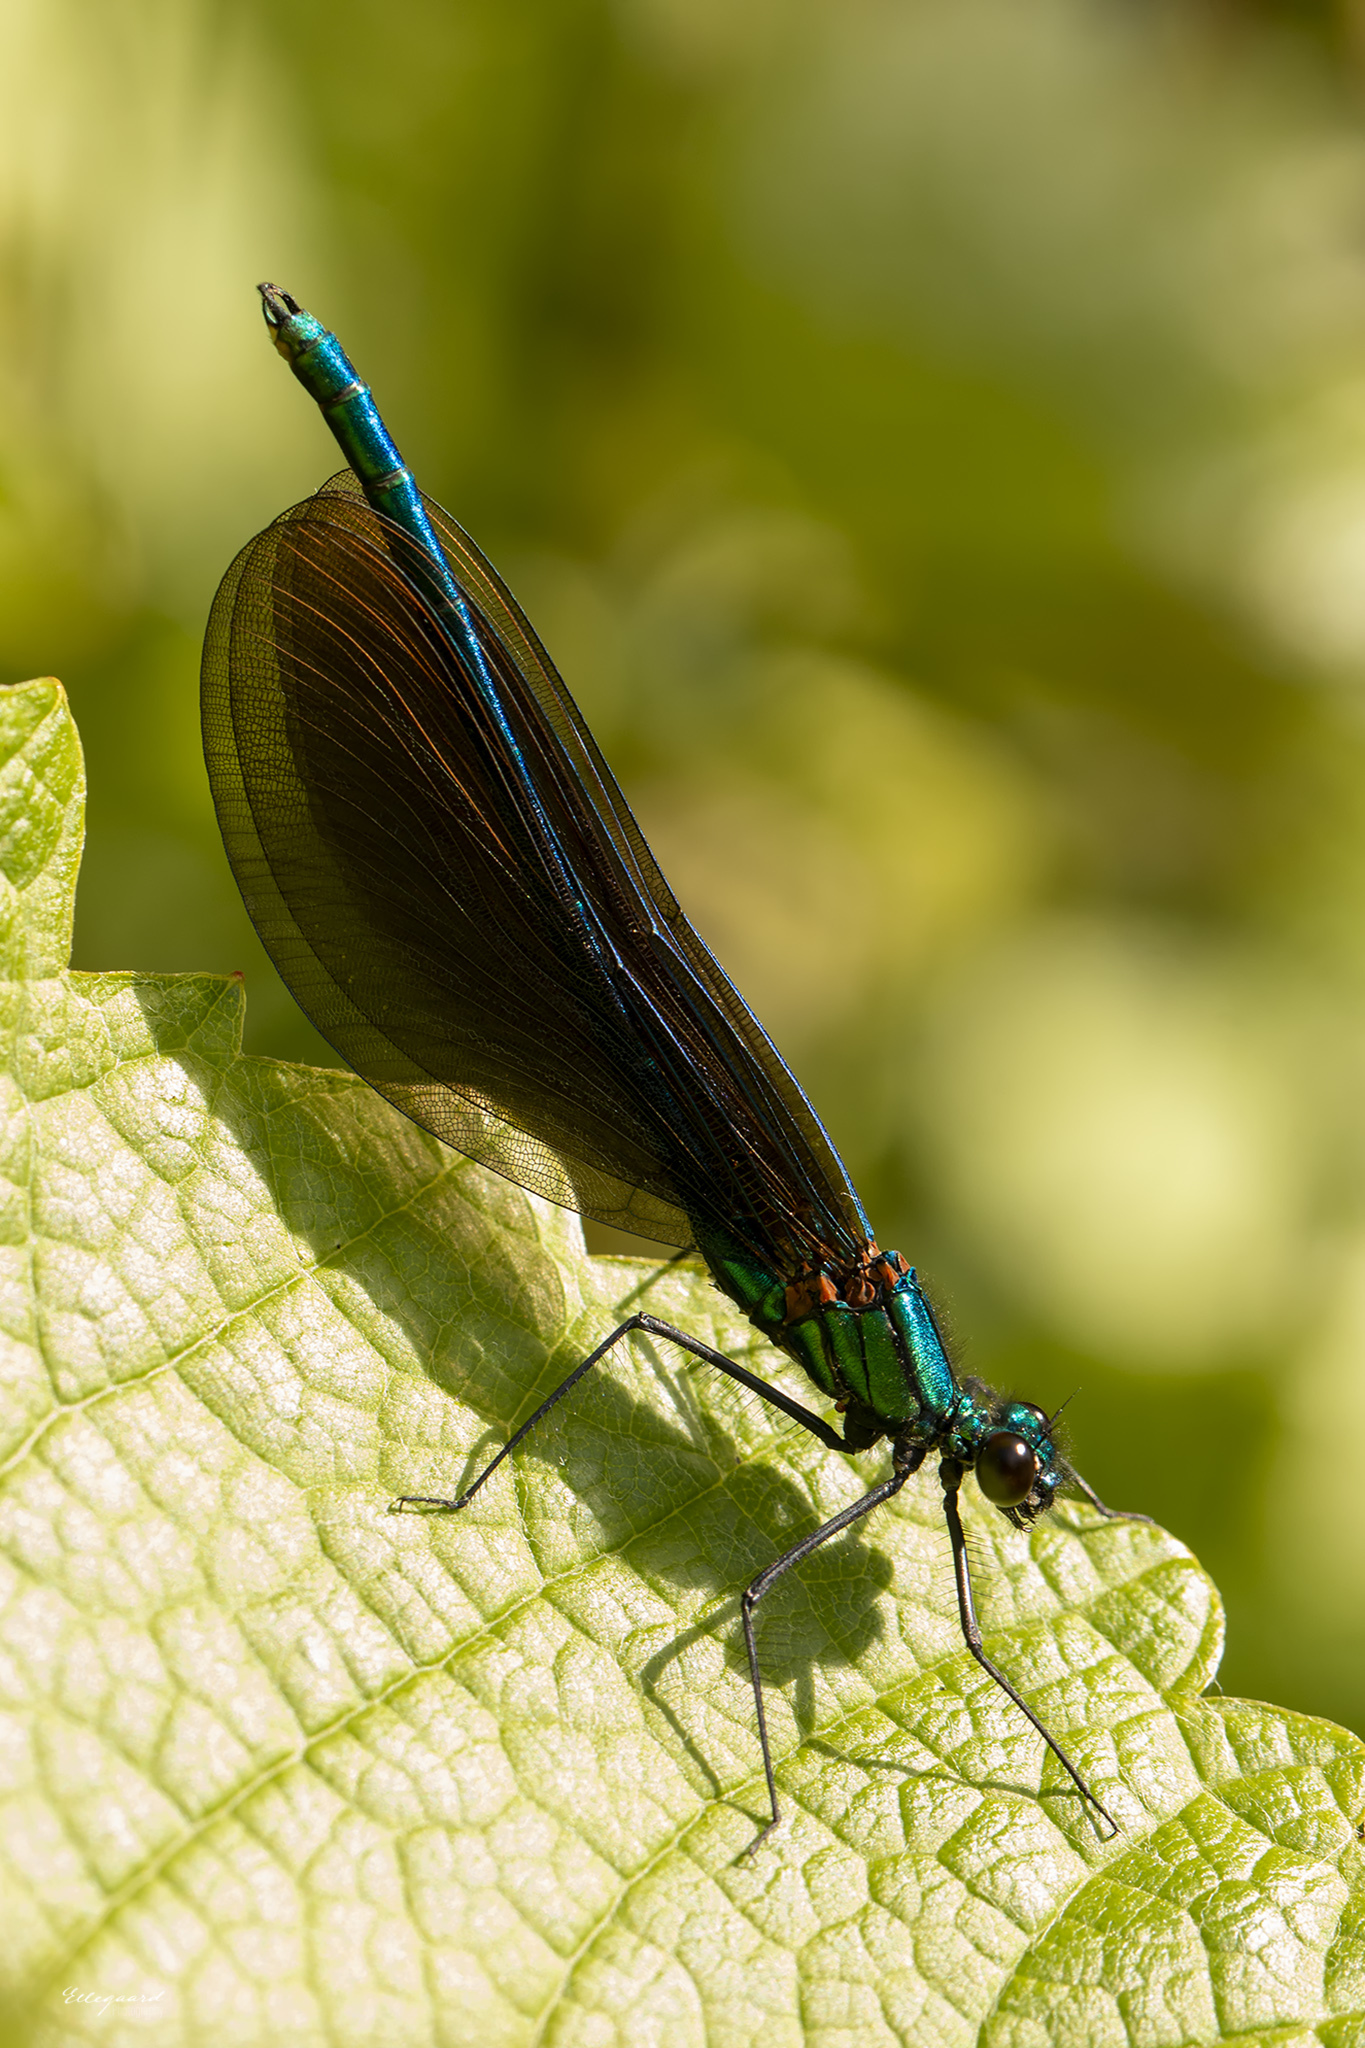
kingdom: Animalia
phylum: Arthropoda
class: Insecta
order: Odonata
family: Calopterygidae
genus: Calopteryx
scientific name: Calopteryx virgo
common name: Beautiful demoiselle
